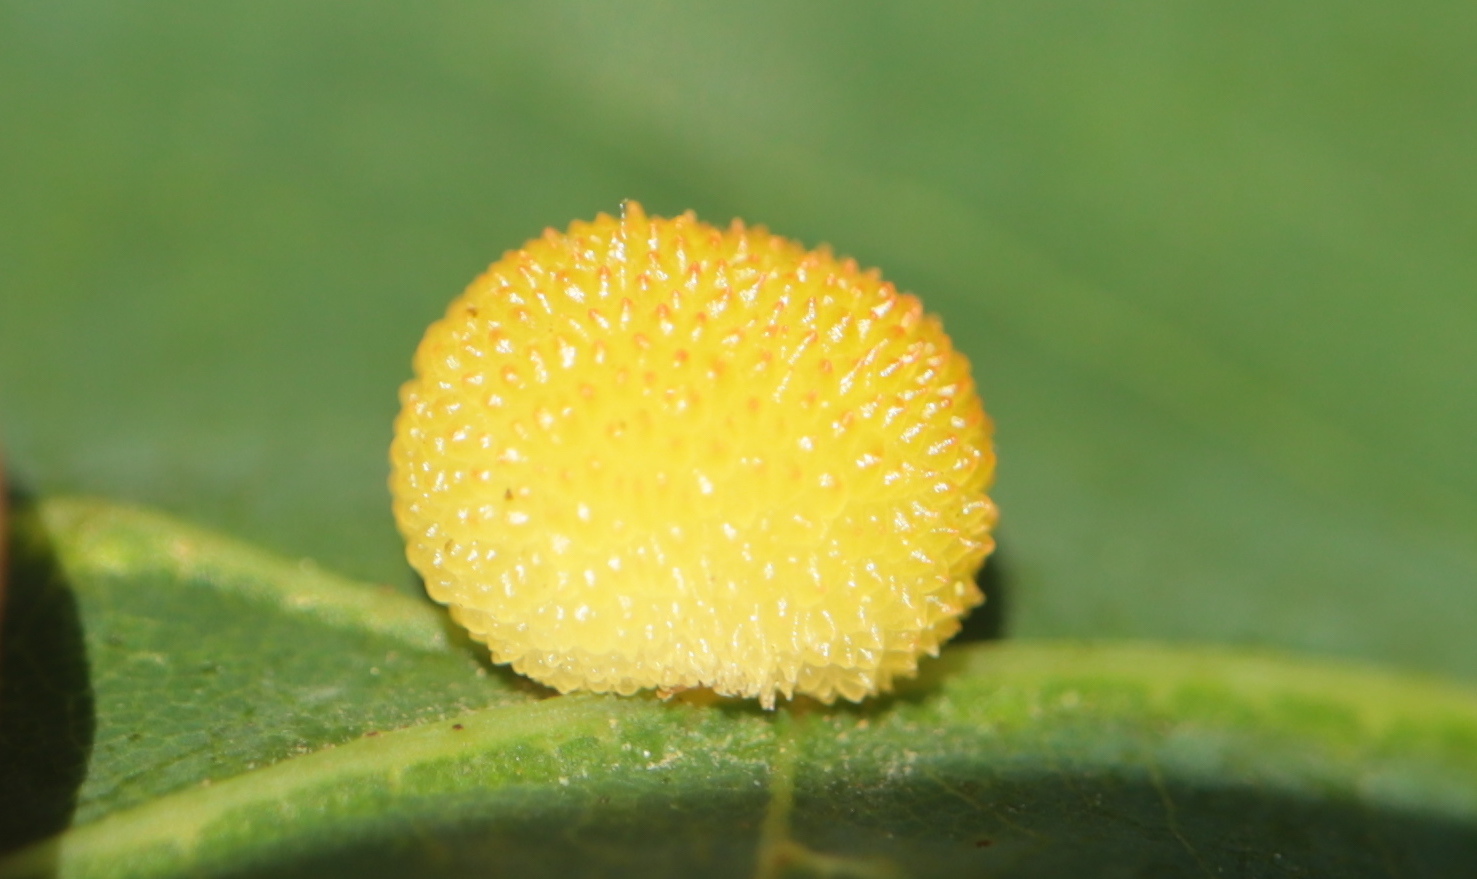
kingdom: Animalia
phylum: Arthropoda
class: Insecta
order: Hymenoptera
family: Cynipidae
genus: Acraspis
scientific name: Acraspis
